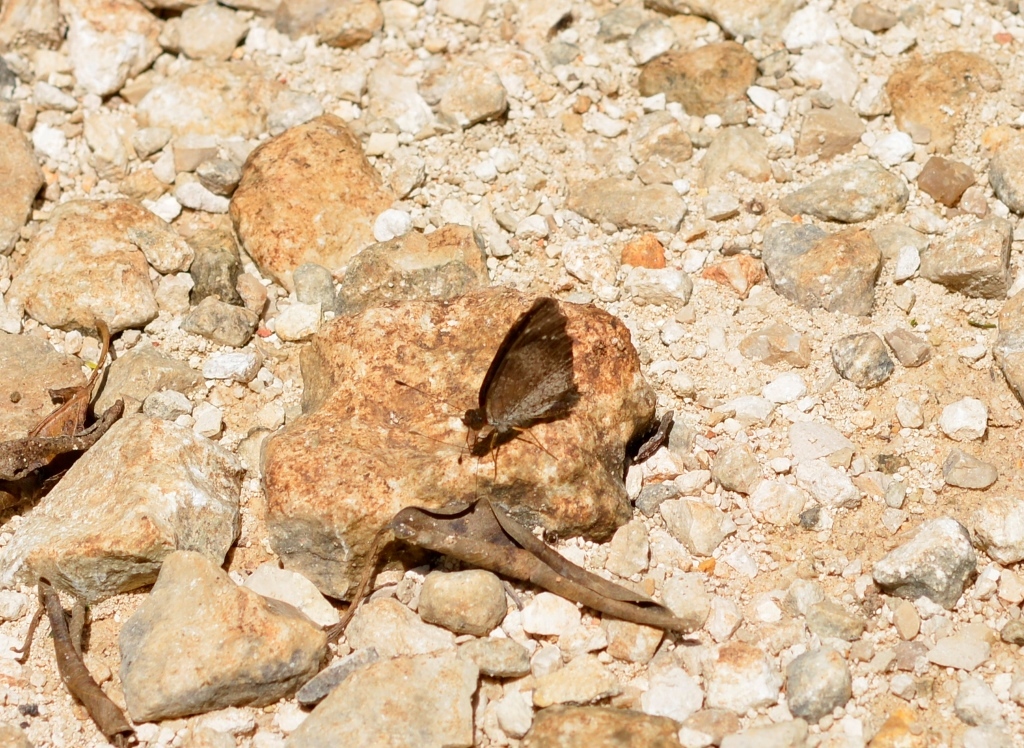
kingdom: Animalia
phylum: Arthropoda
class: Insecta
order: Lepidoptera
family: Nymphalidae
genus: Anthanassa
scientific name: Anthanassa argentea
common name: Chestnut crescent
